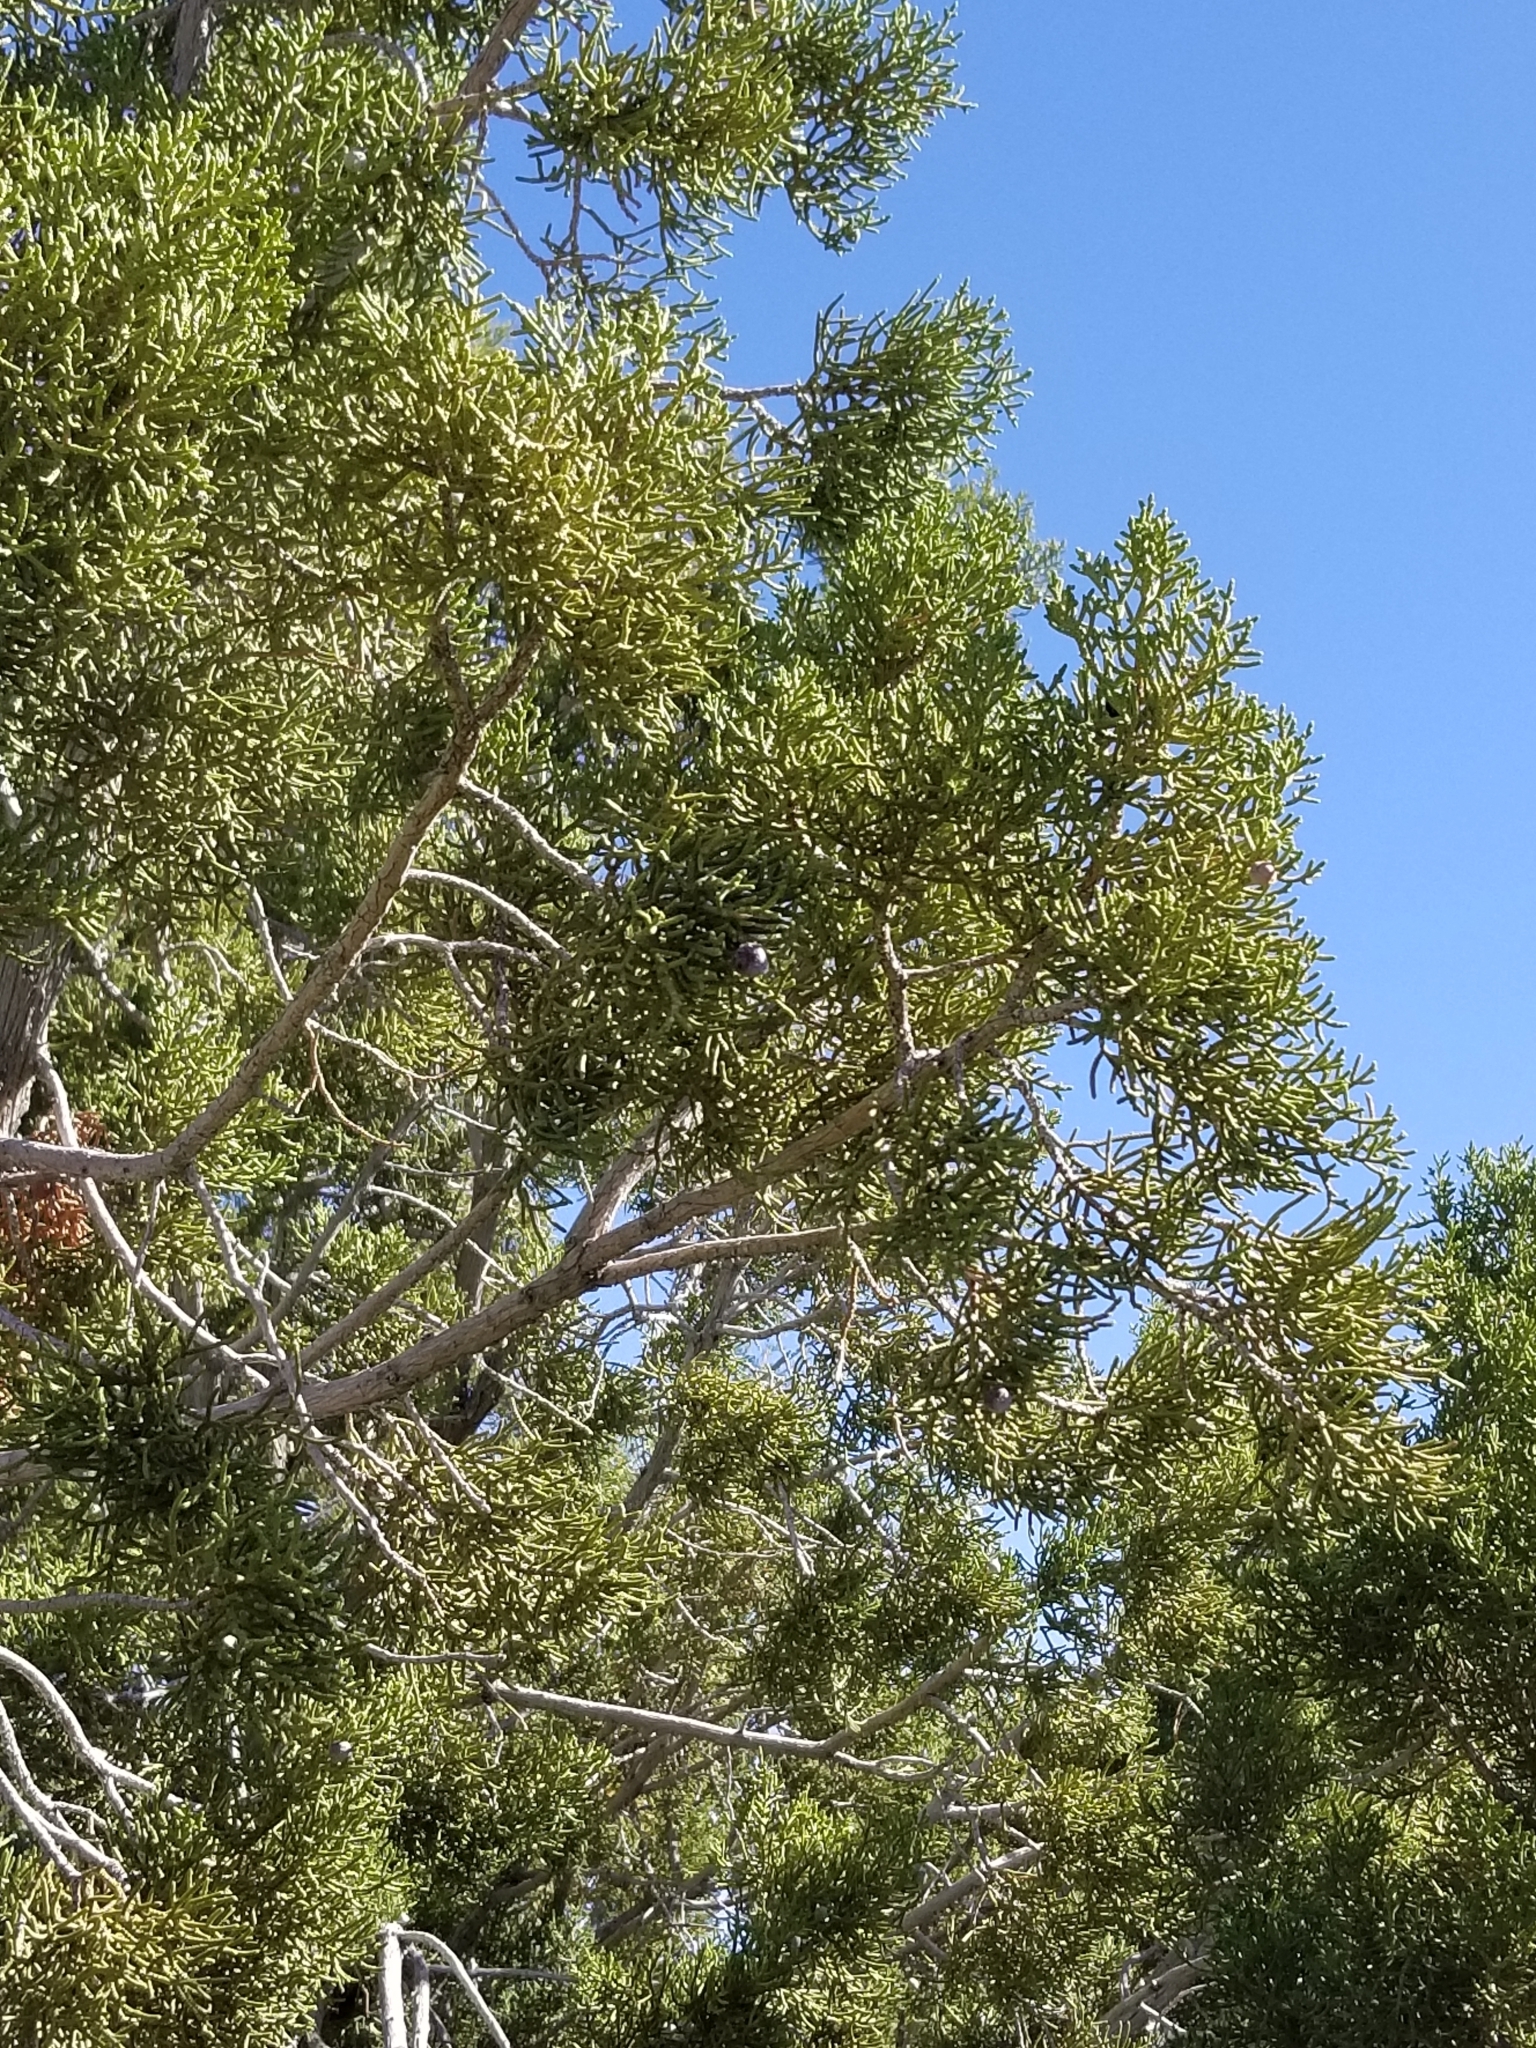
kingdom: Plantae
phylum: Tracheophyta
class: Pinopsida
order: Pinales
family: Cupressaceae
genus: Juniperus
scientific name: Juniperus californica
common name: California juniper
